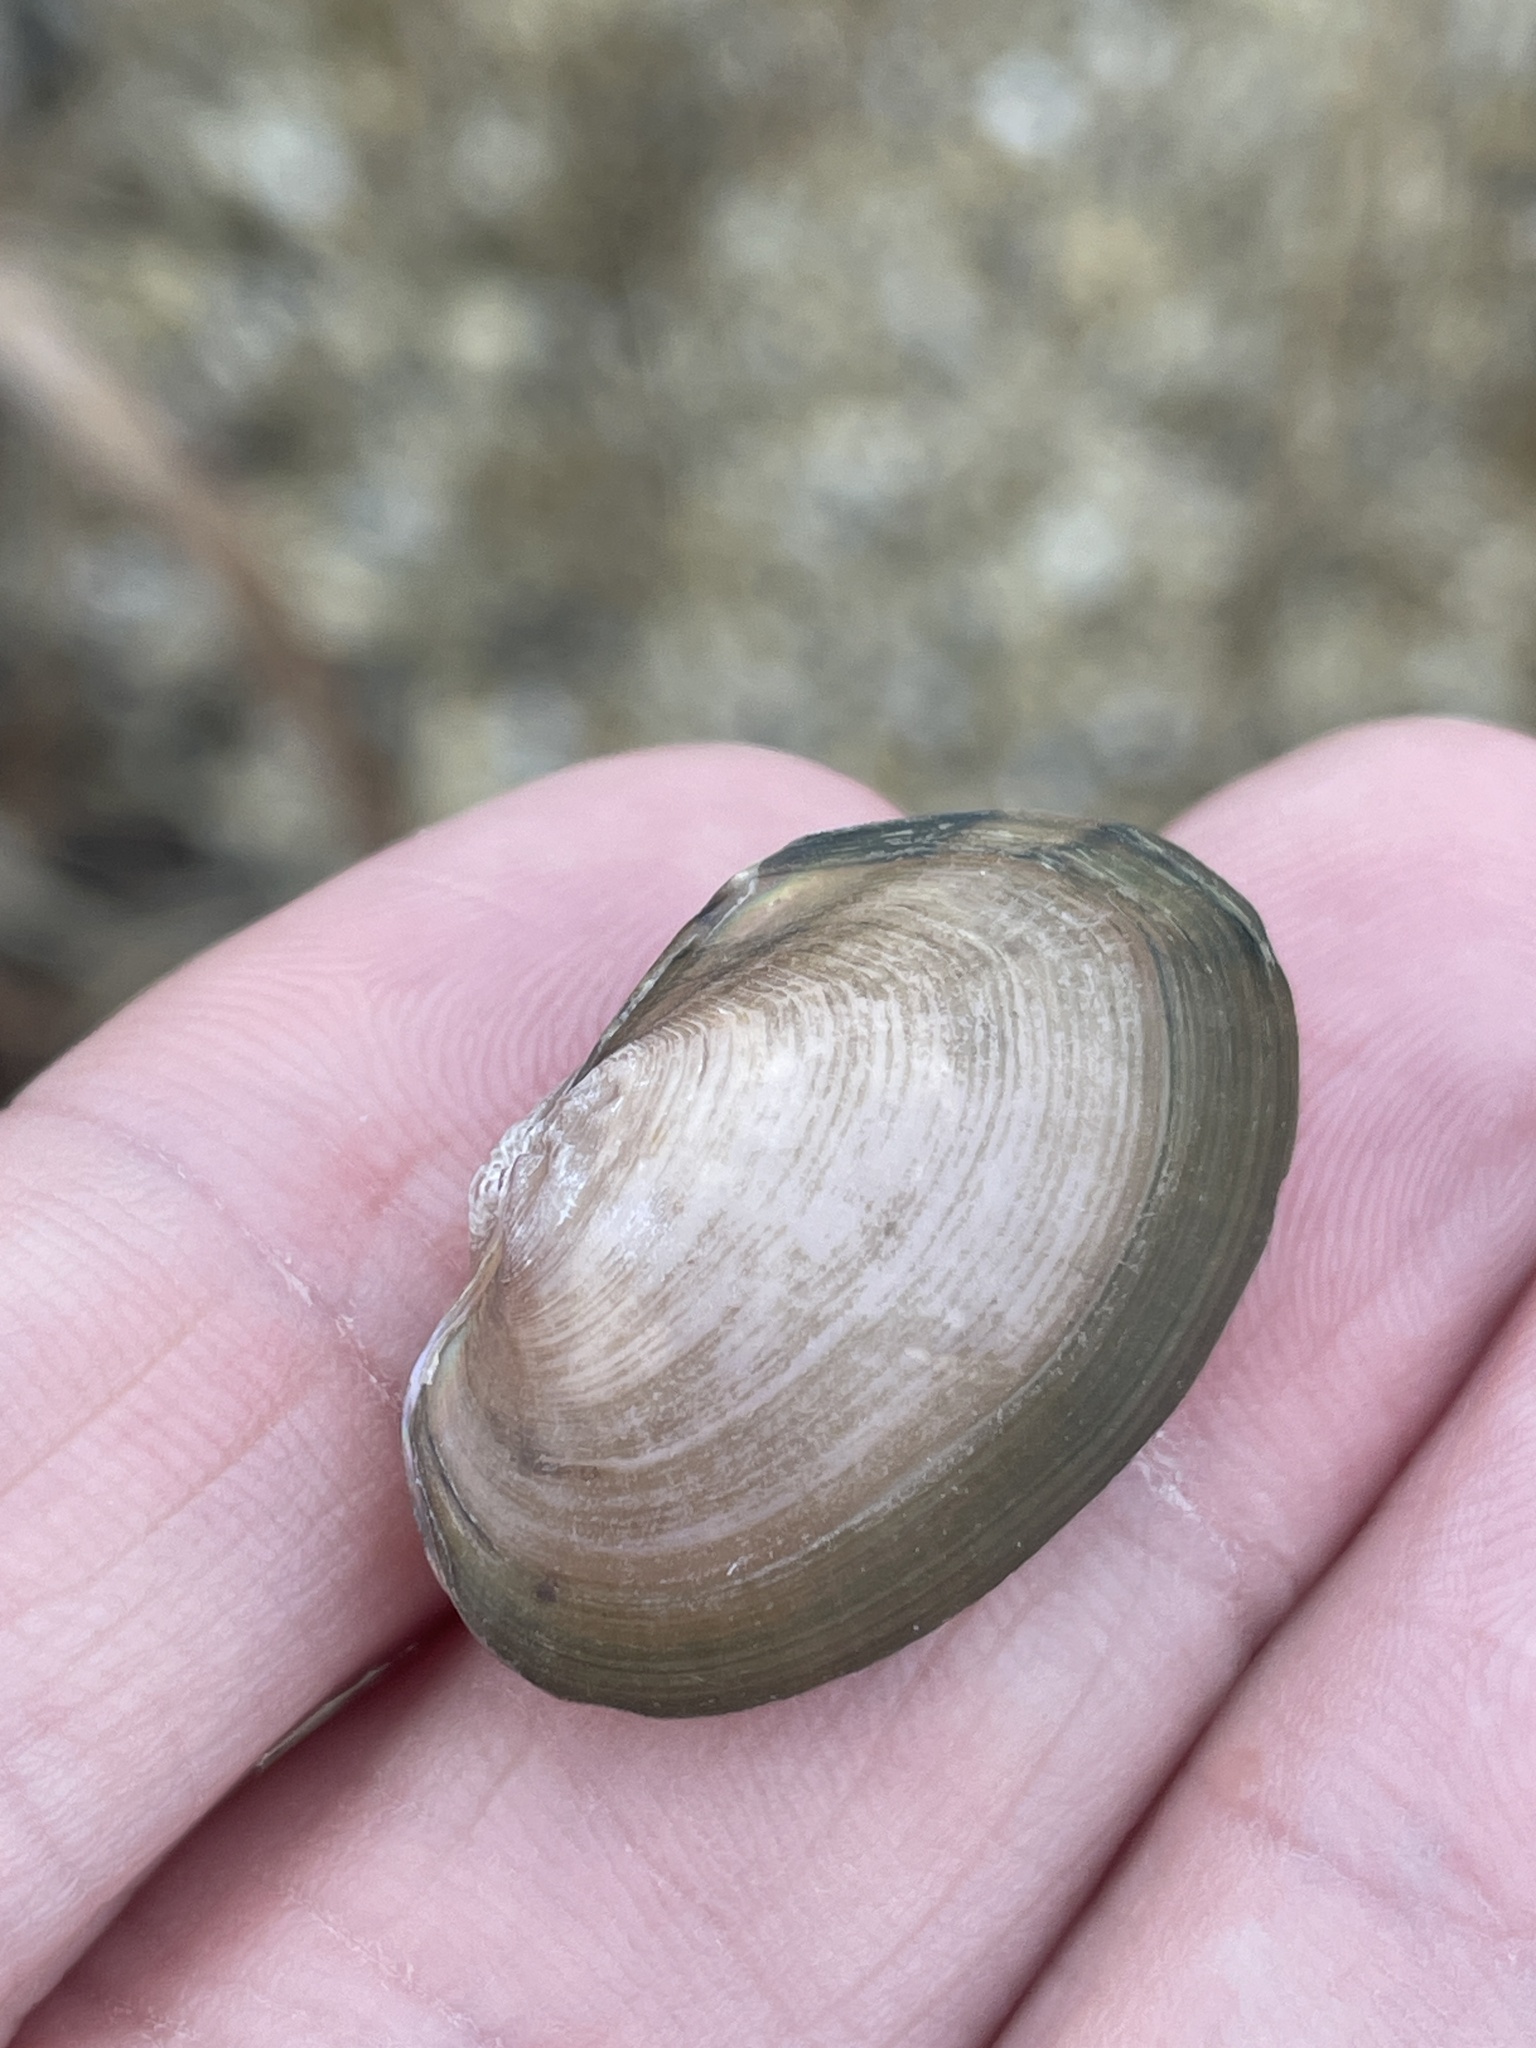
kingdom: Animalia
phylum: Mollusca
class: Bivalvia
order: Unionida
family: Unionidae
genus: Pyganodon
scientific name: Pyganodon grandis
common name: Giant floater
